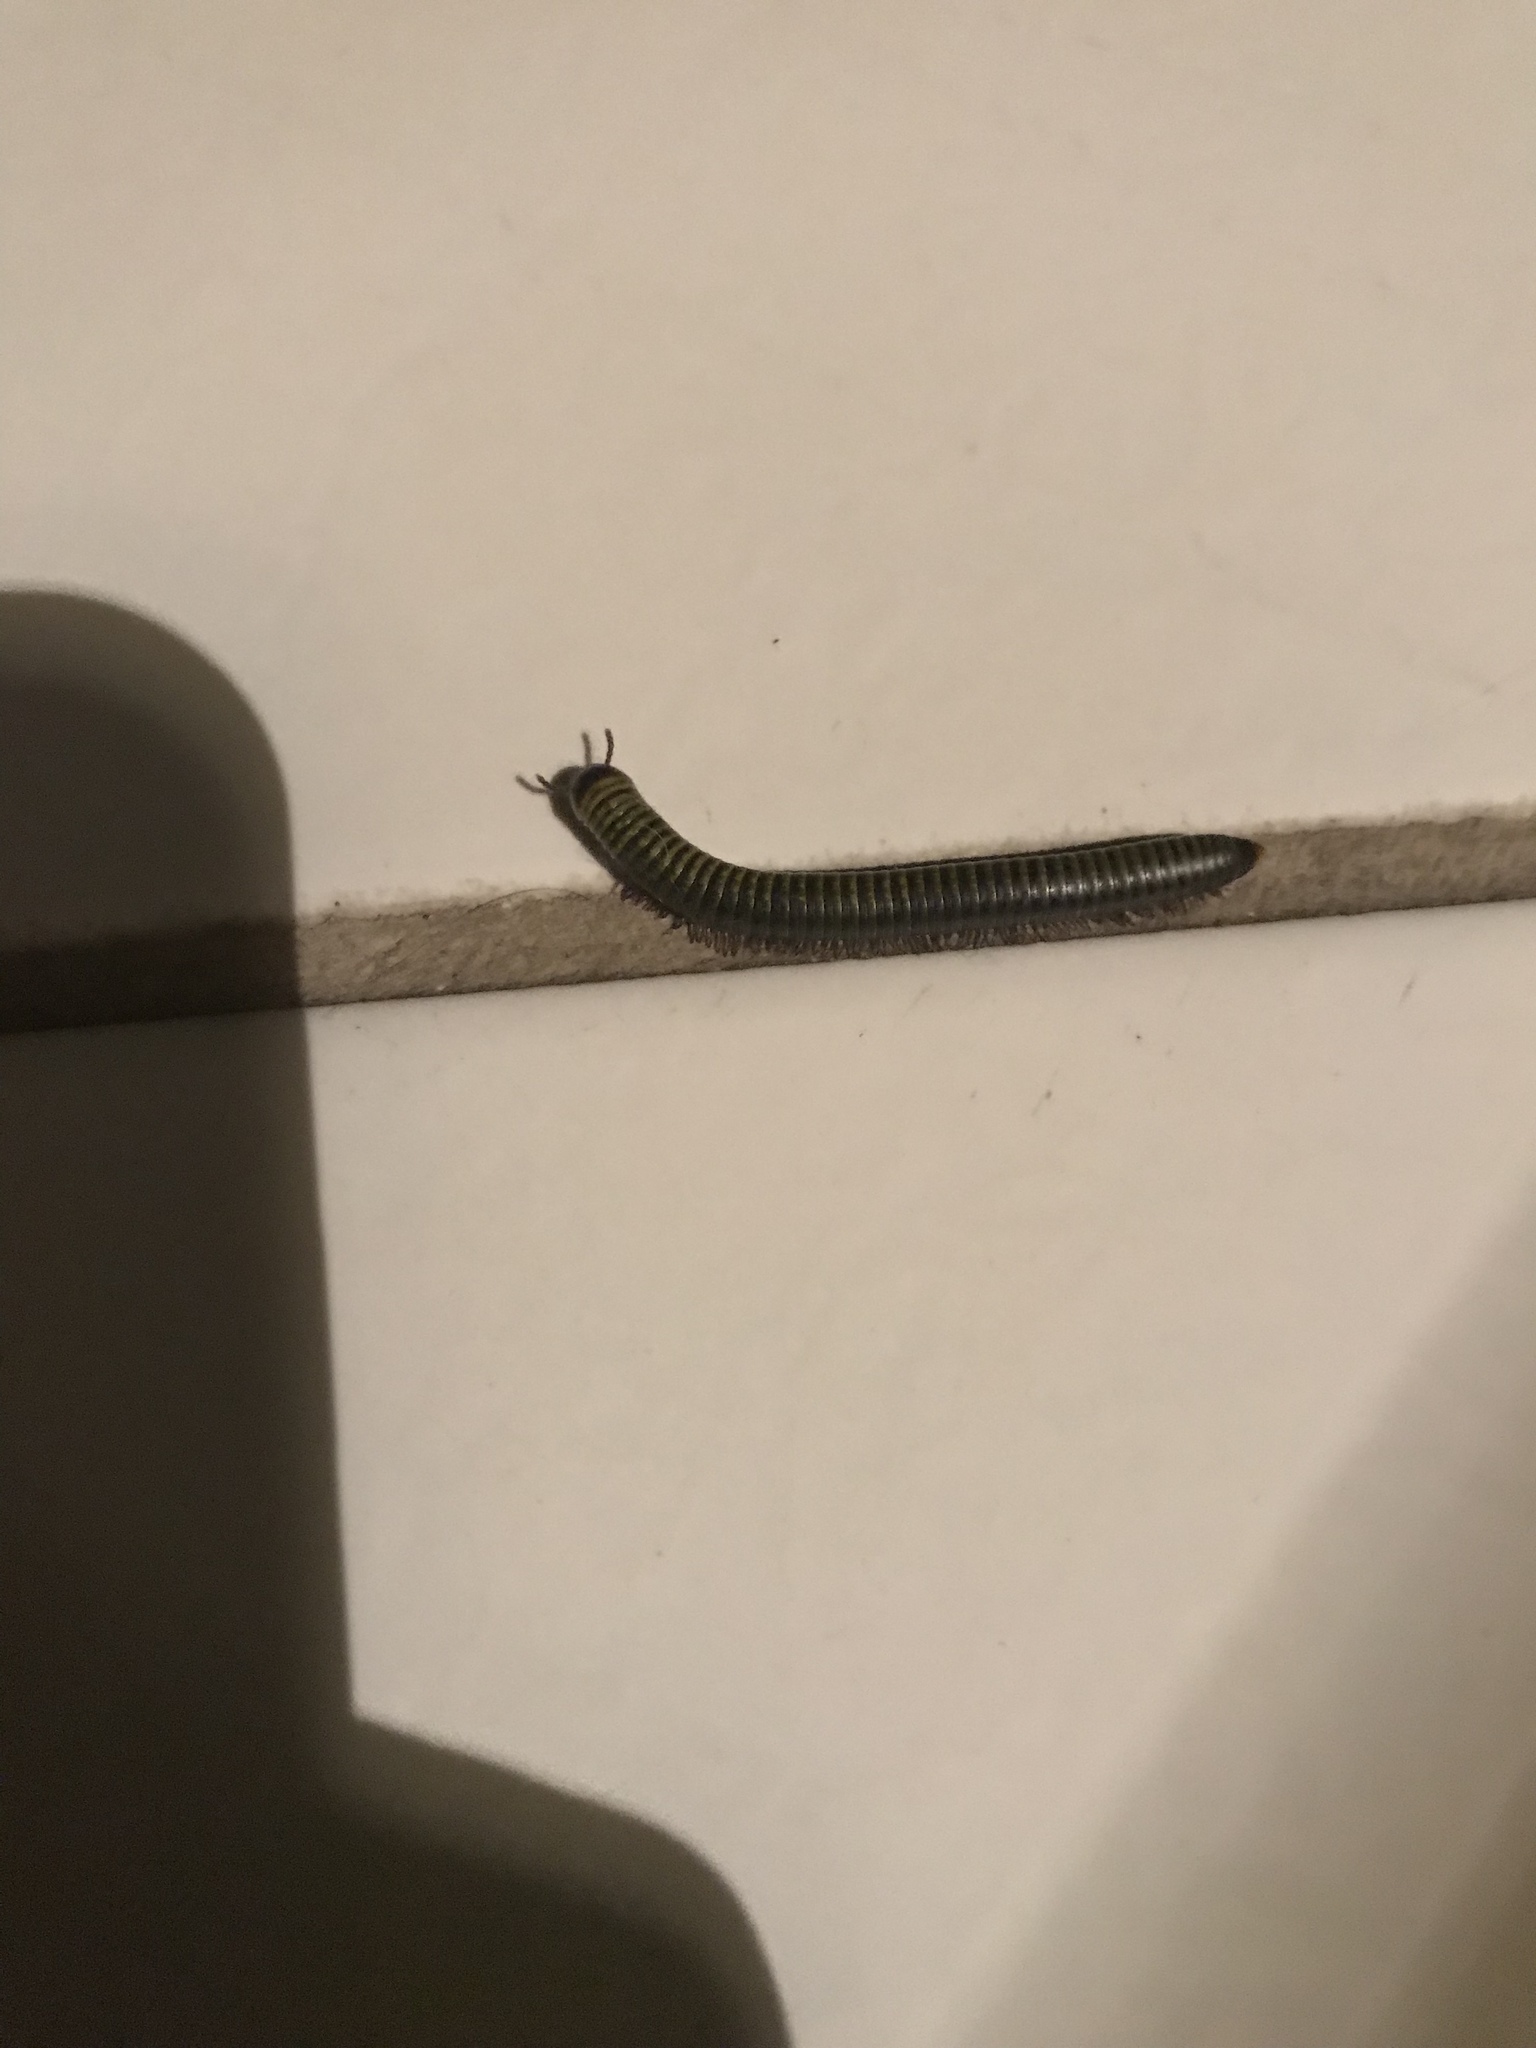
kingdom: Animalia
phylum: Arthropoda
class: Diplopoda
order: Spirobolida
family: Rhinocricidae
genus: Anadenobolus
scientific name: Anadenobolus monilicornis
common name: Caribbean millipede
